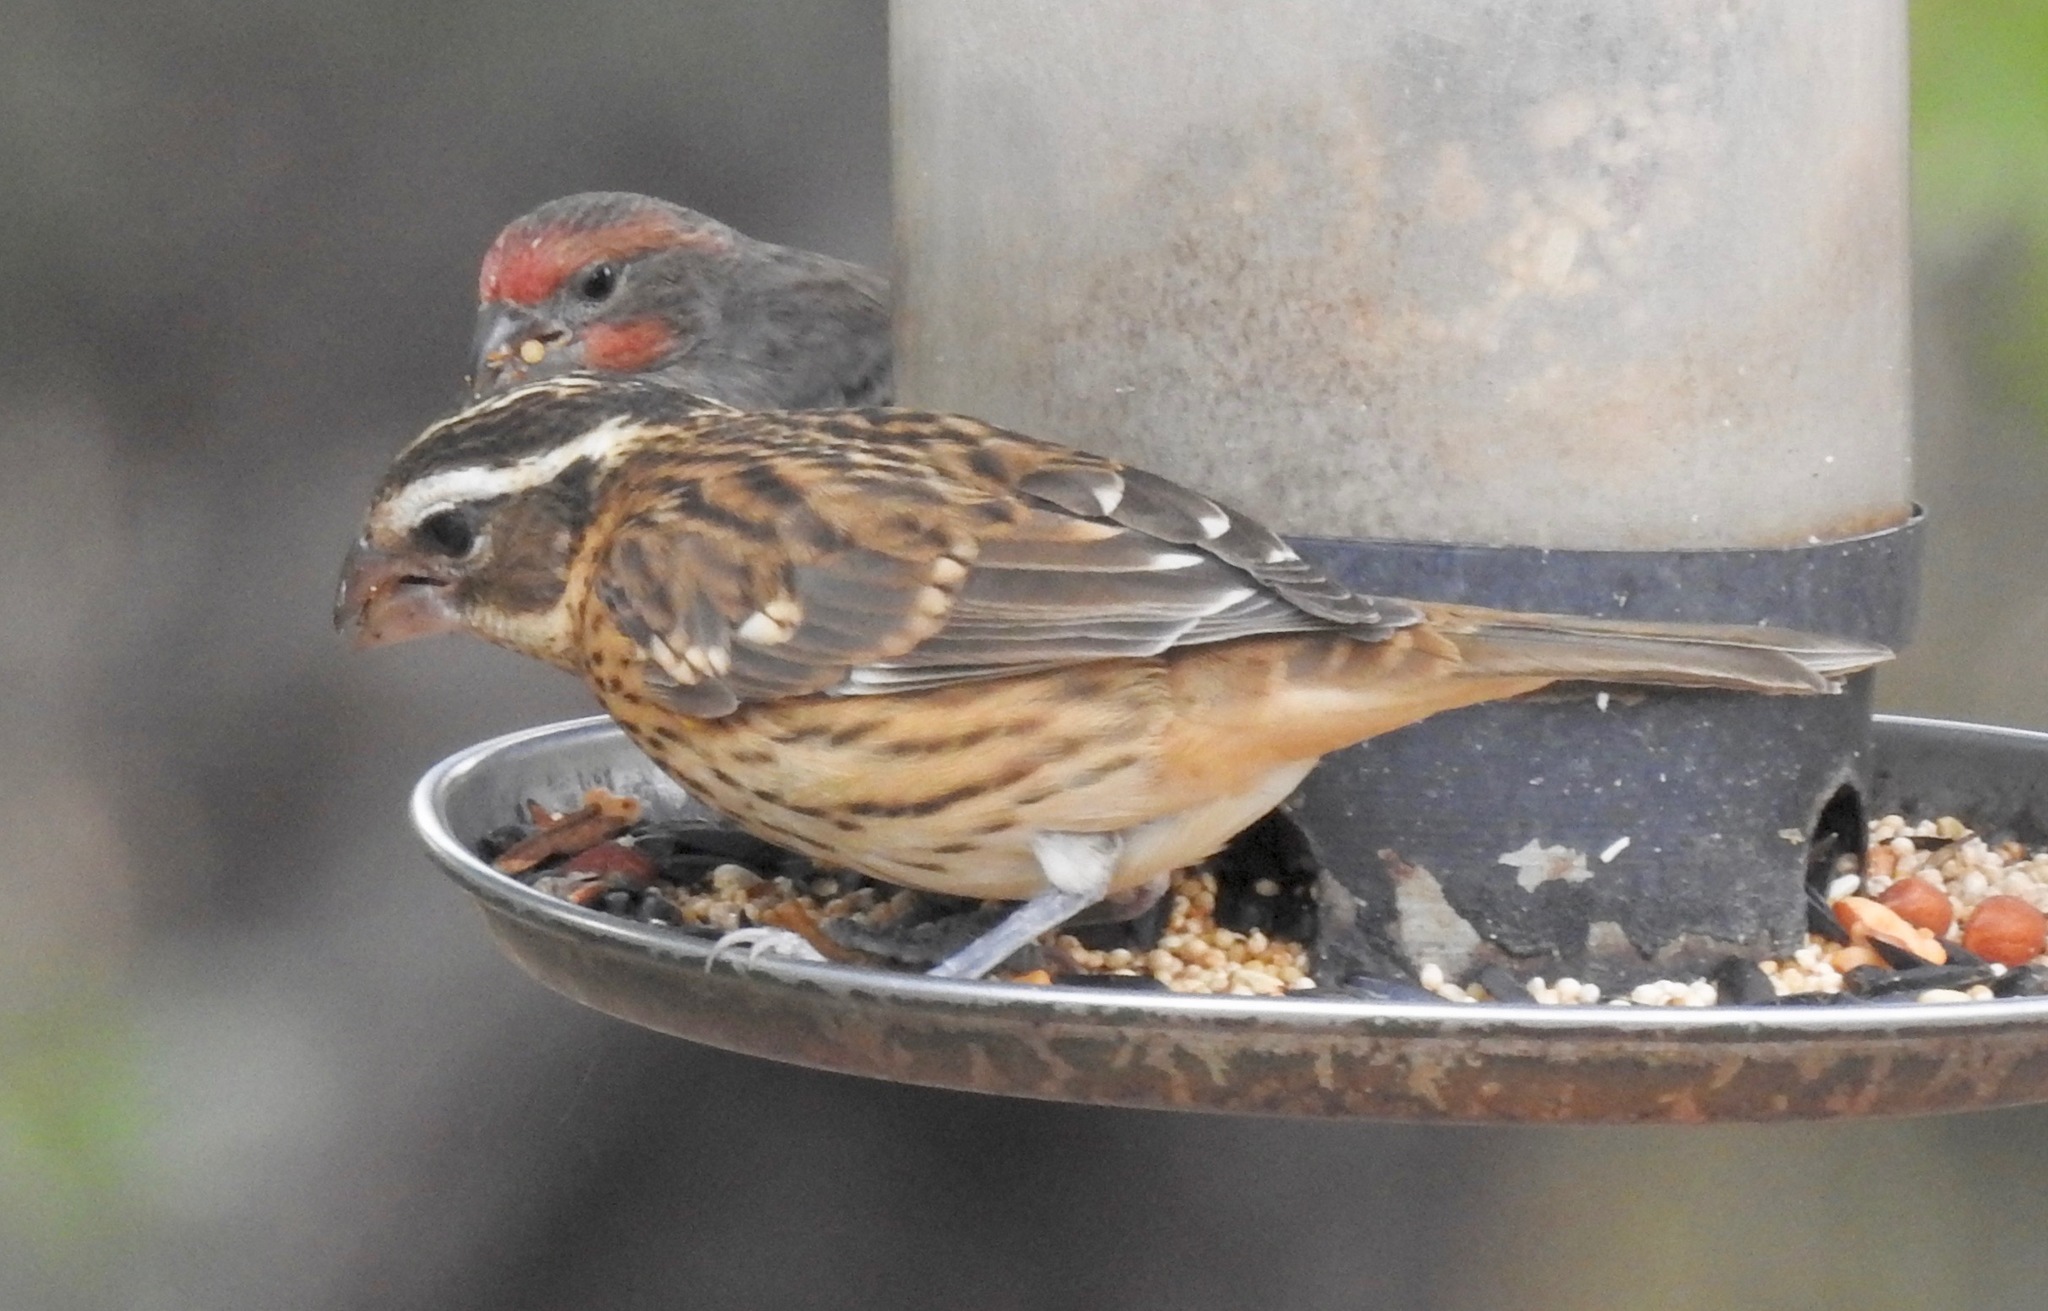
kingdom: Animalia
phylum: Chordata
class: Aves
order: Passeriformes
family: Cardinalidae
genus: Pheucticus
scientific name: Pheucticus melanocephalus
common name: Black-headed grosbeak
